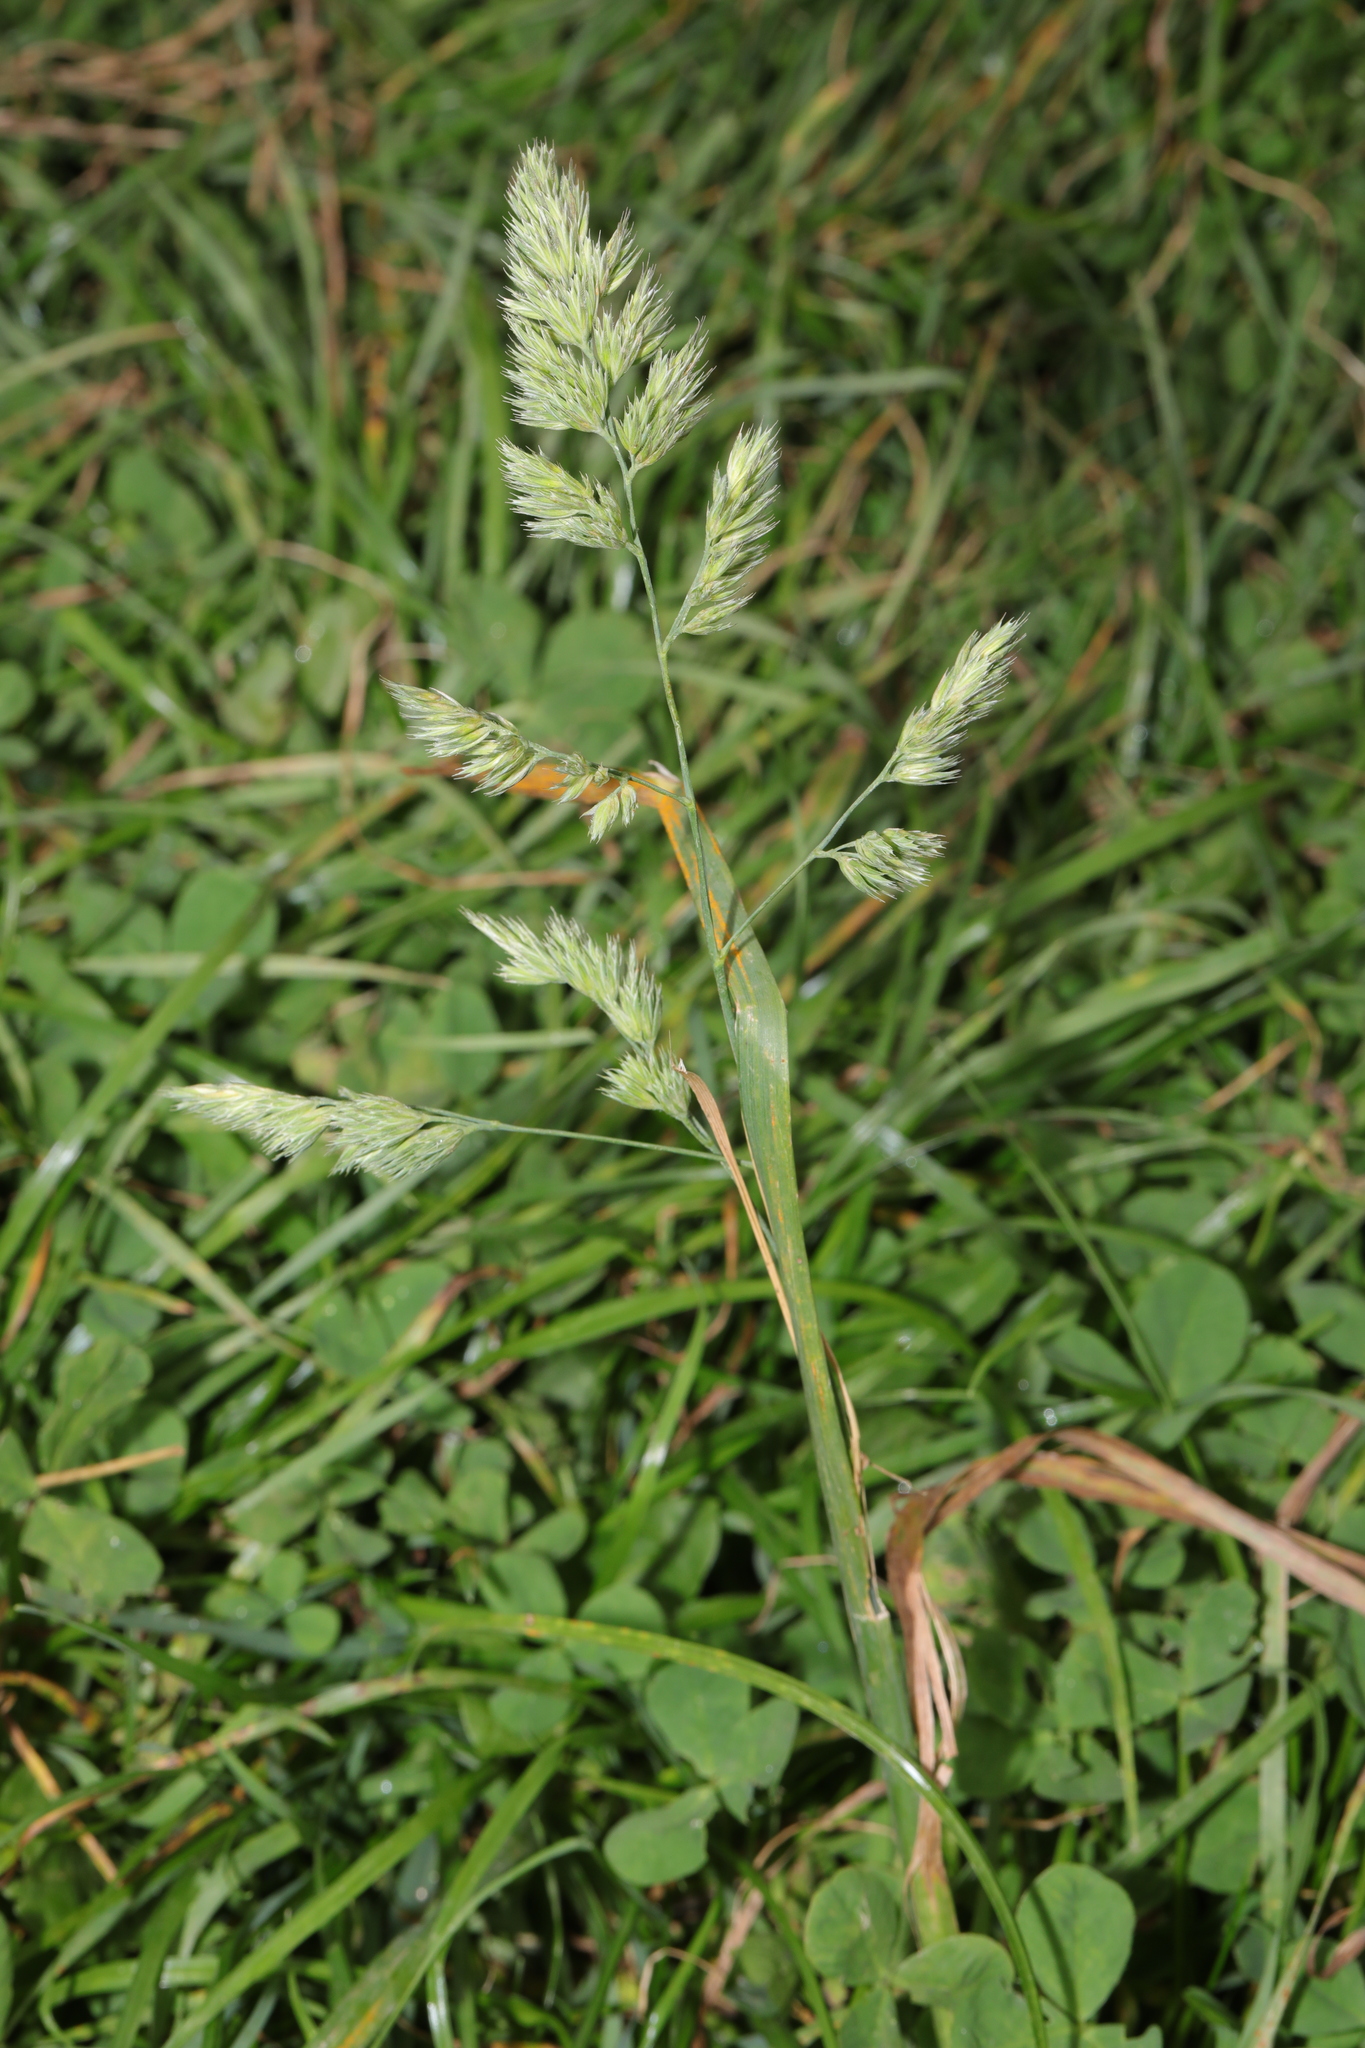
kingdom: Plantae
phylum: Tracheophyta
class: Liliopsida
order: Poales
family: Poaceae
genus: Dactylis
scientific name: Dactylis glomerata
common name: Orchardgrass
